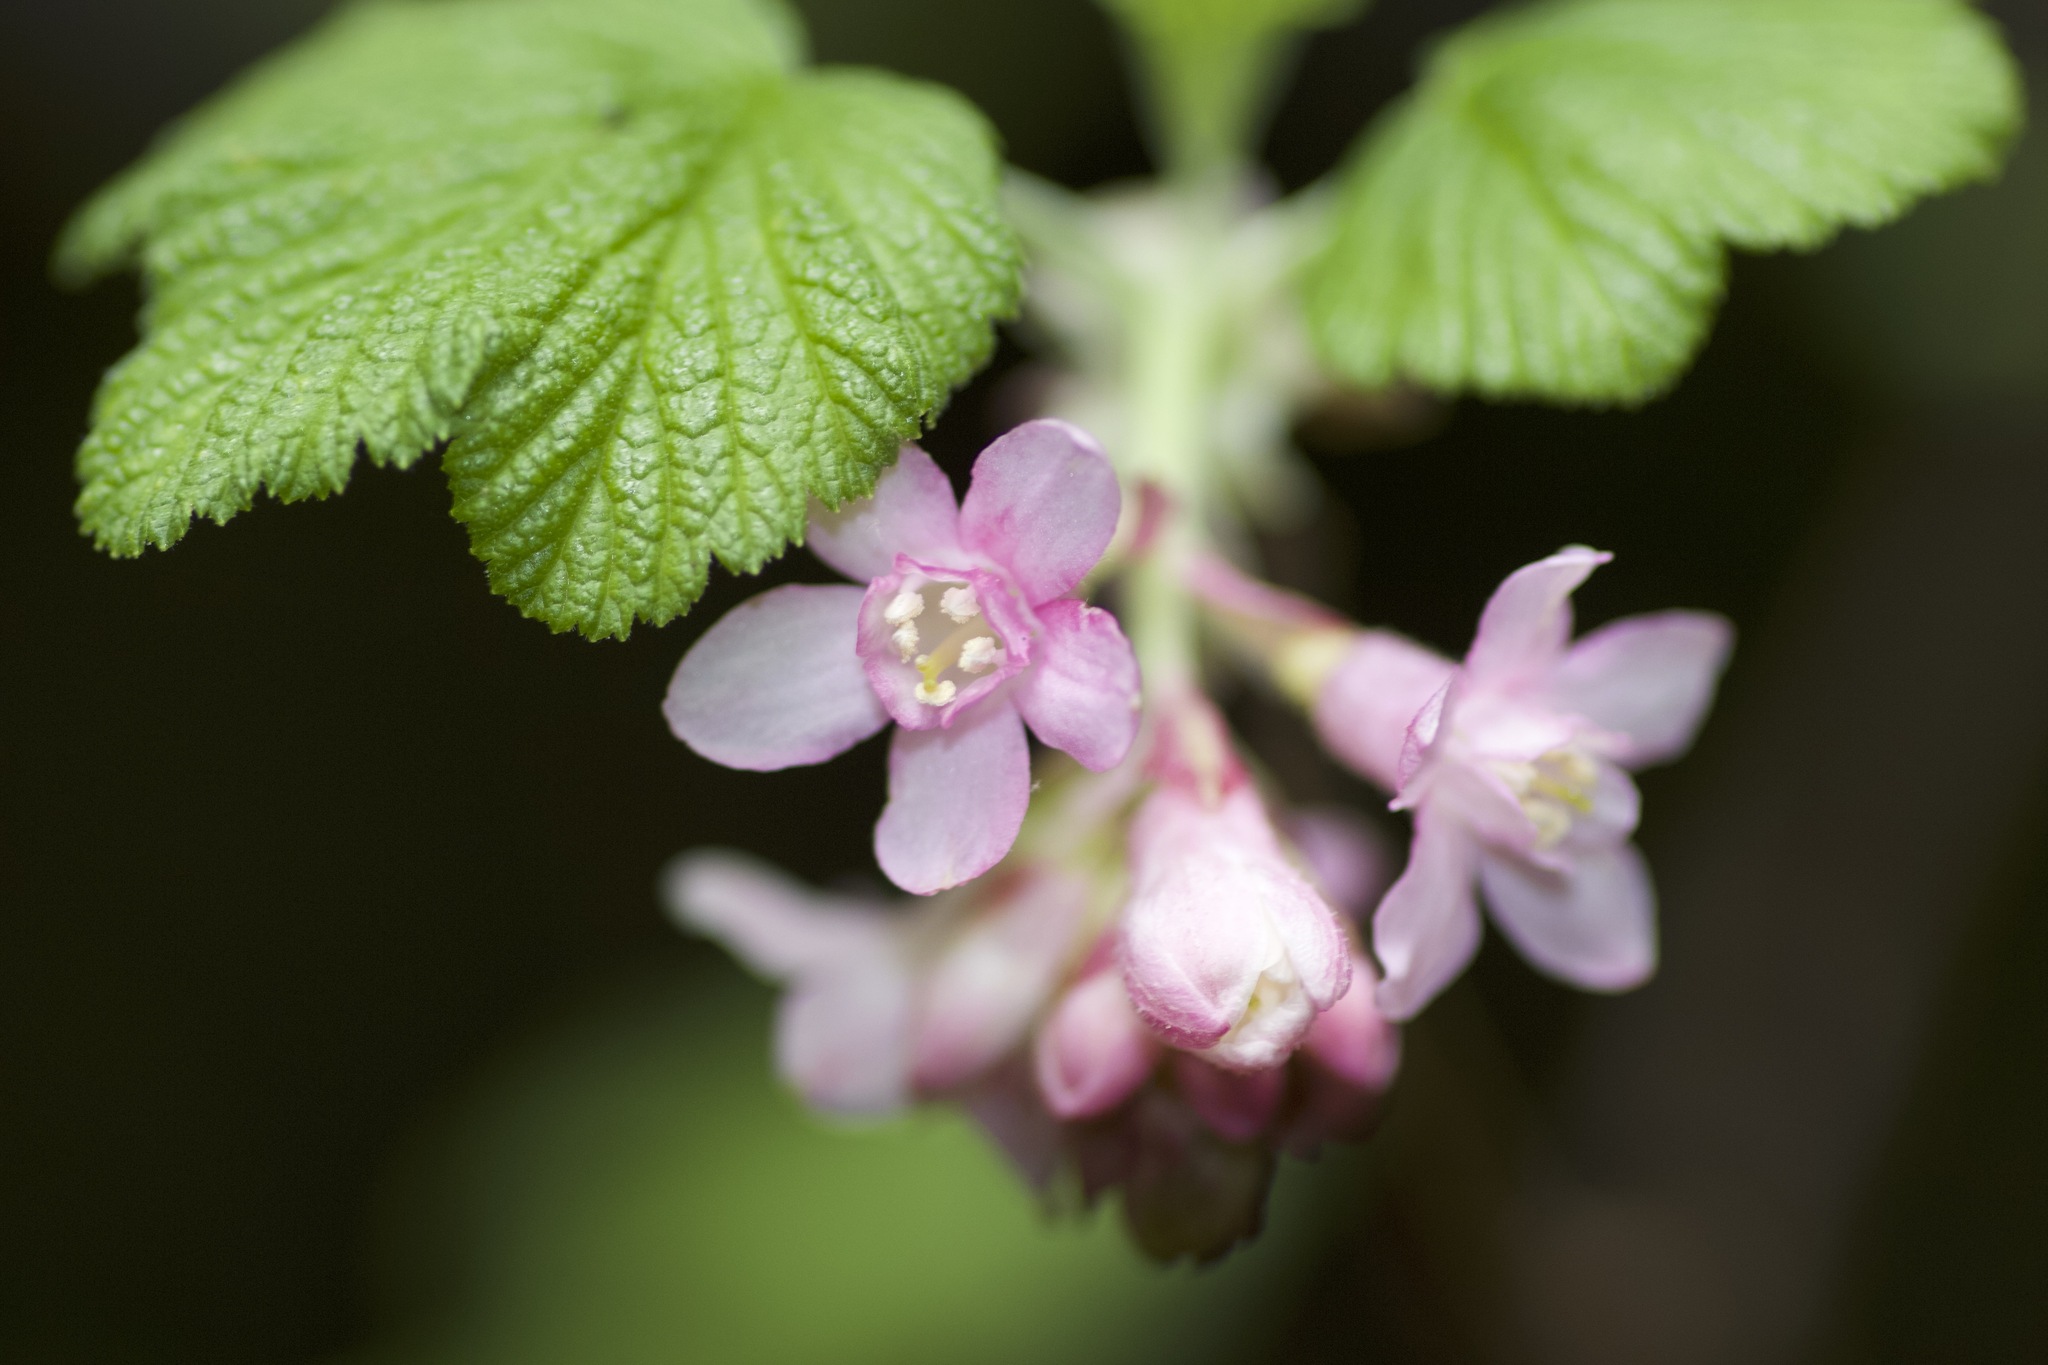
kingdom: Plantae
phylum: Tracheophyta
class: Magnoliopsida
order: Saxifragales
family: Grossulariaceae
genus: Ribes
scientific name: Ribes sanguineum
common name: Flowering currant
